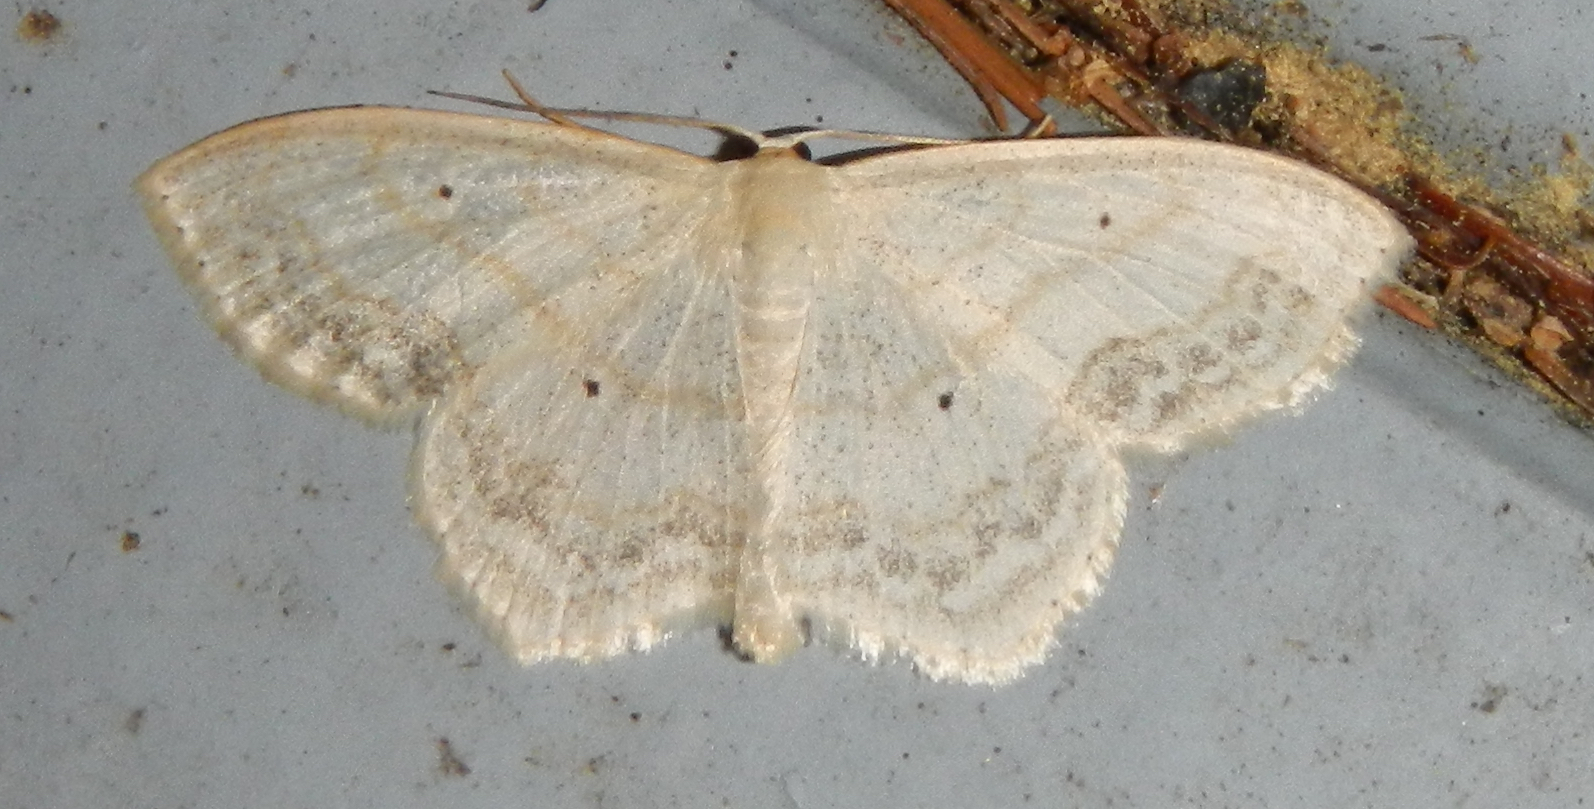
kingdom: Animalia
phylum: Arthropoda
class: Insecta
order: Lepidoptera
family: Geometridae
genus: Scopula
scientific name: Scopula limboundata
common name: Large lace border
